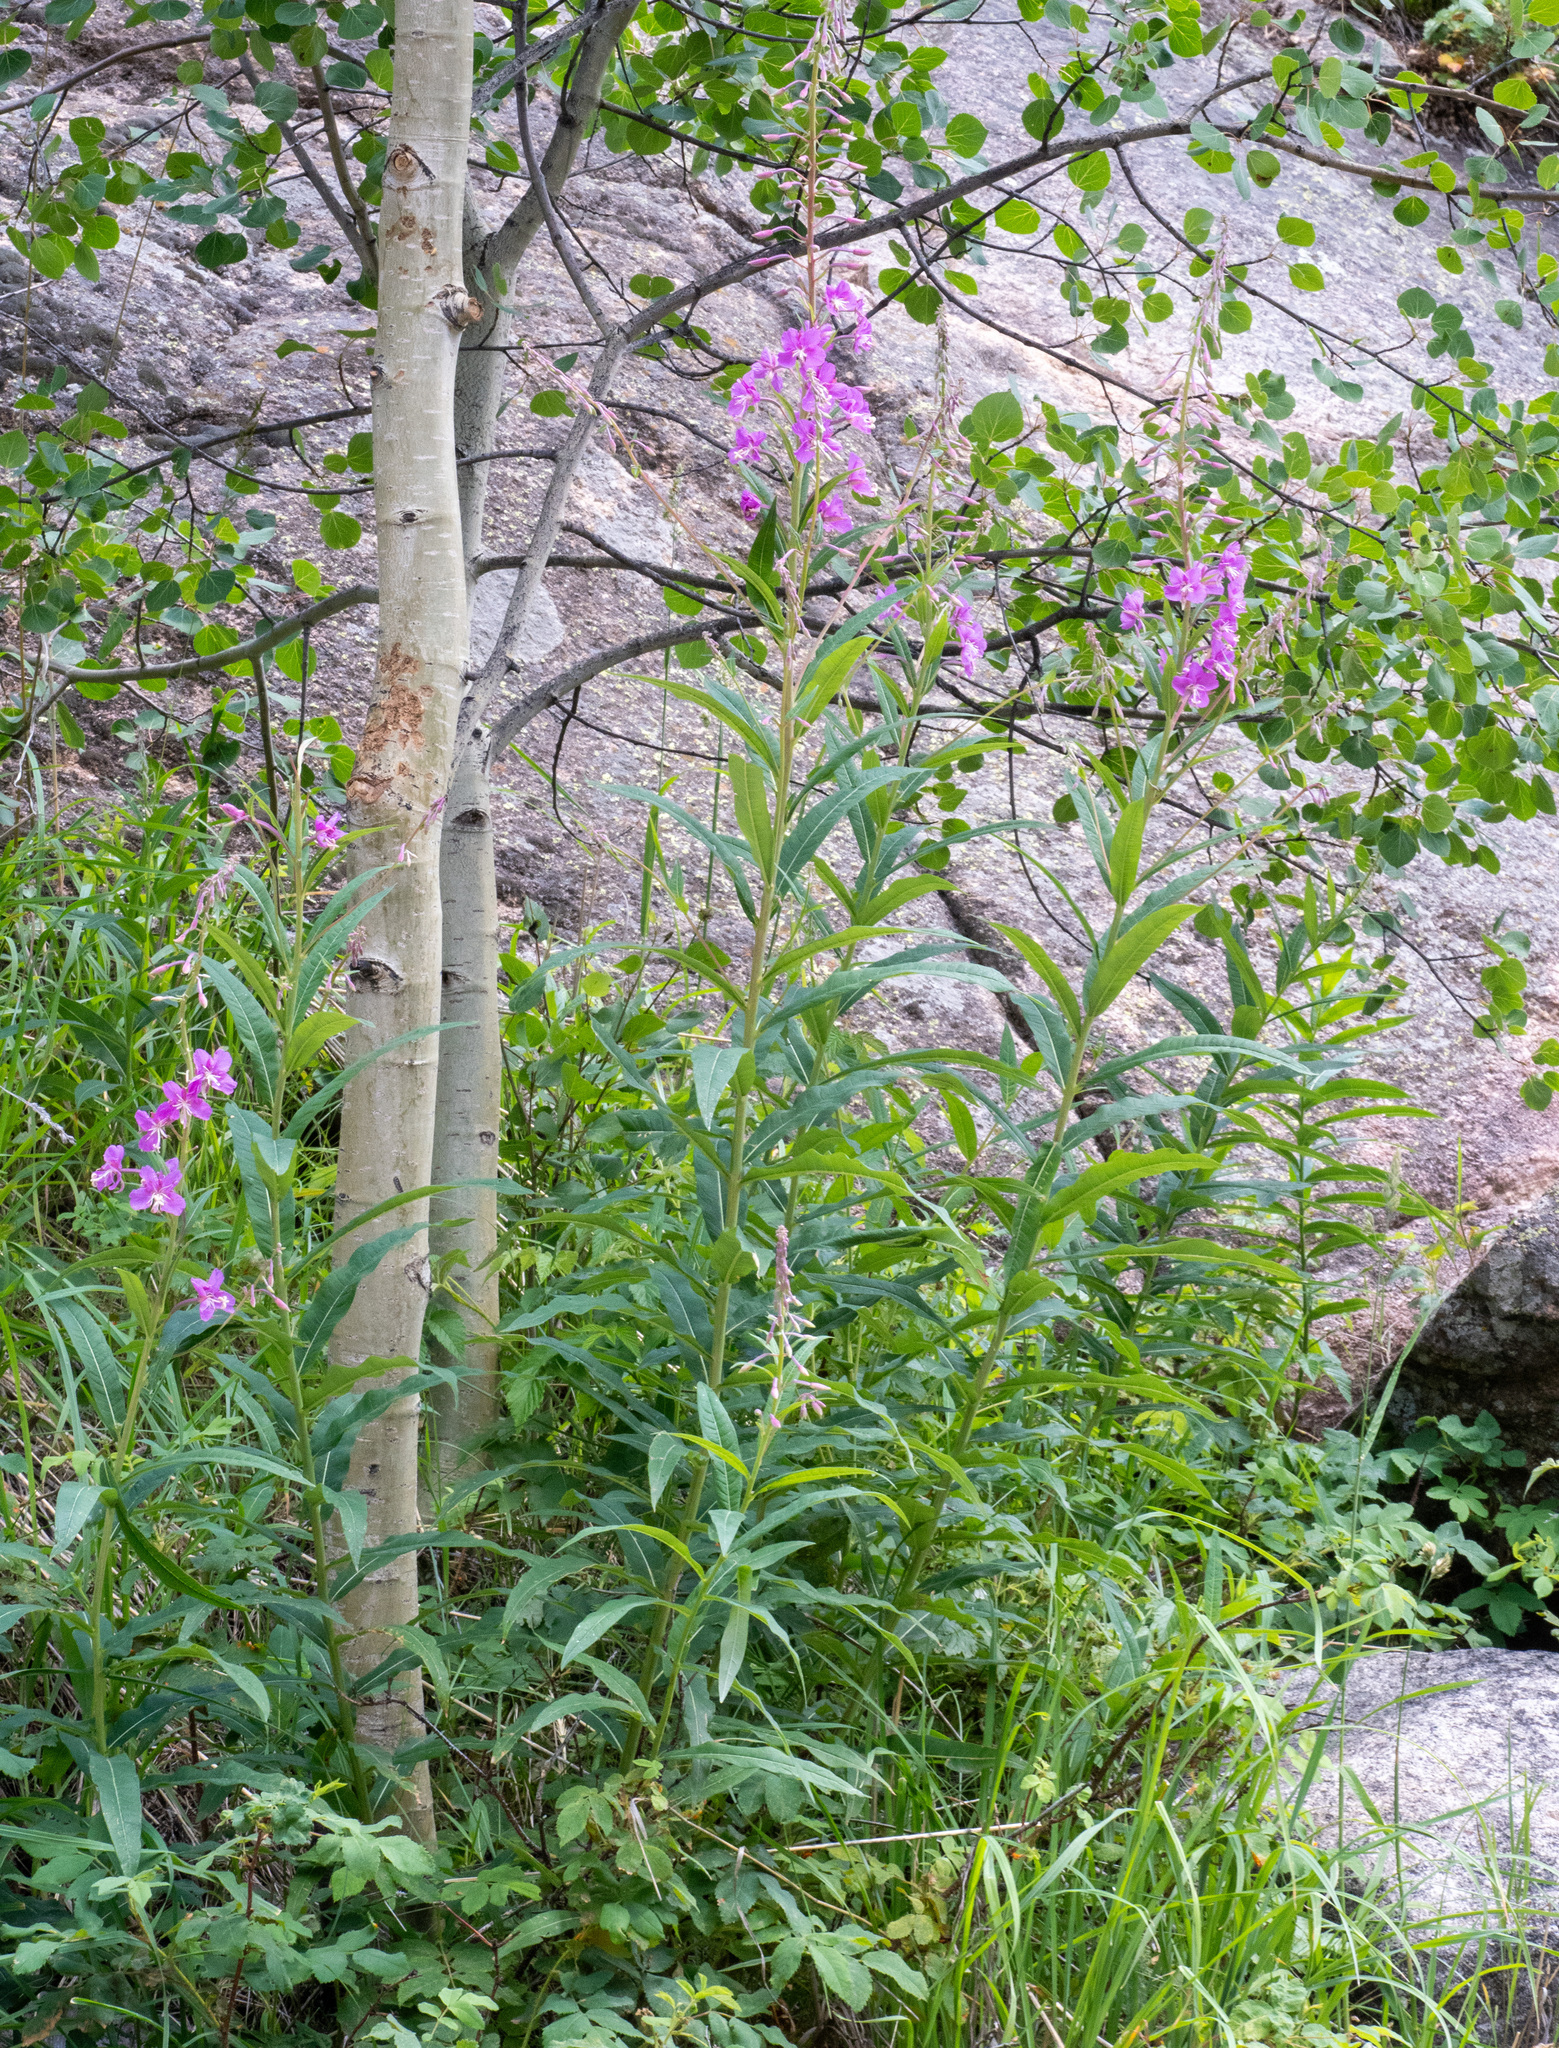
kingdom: Plantae
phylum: Tracheophyta
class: Magnoliopsida
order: Myrtales
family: Onagraceae
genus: Chamaenerion
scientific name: Chamaenerion angustifolium
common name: Fireweed
